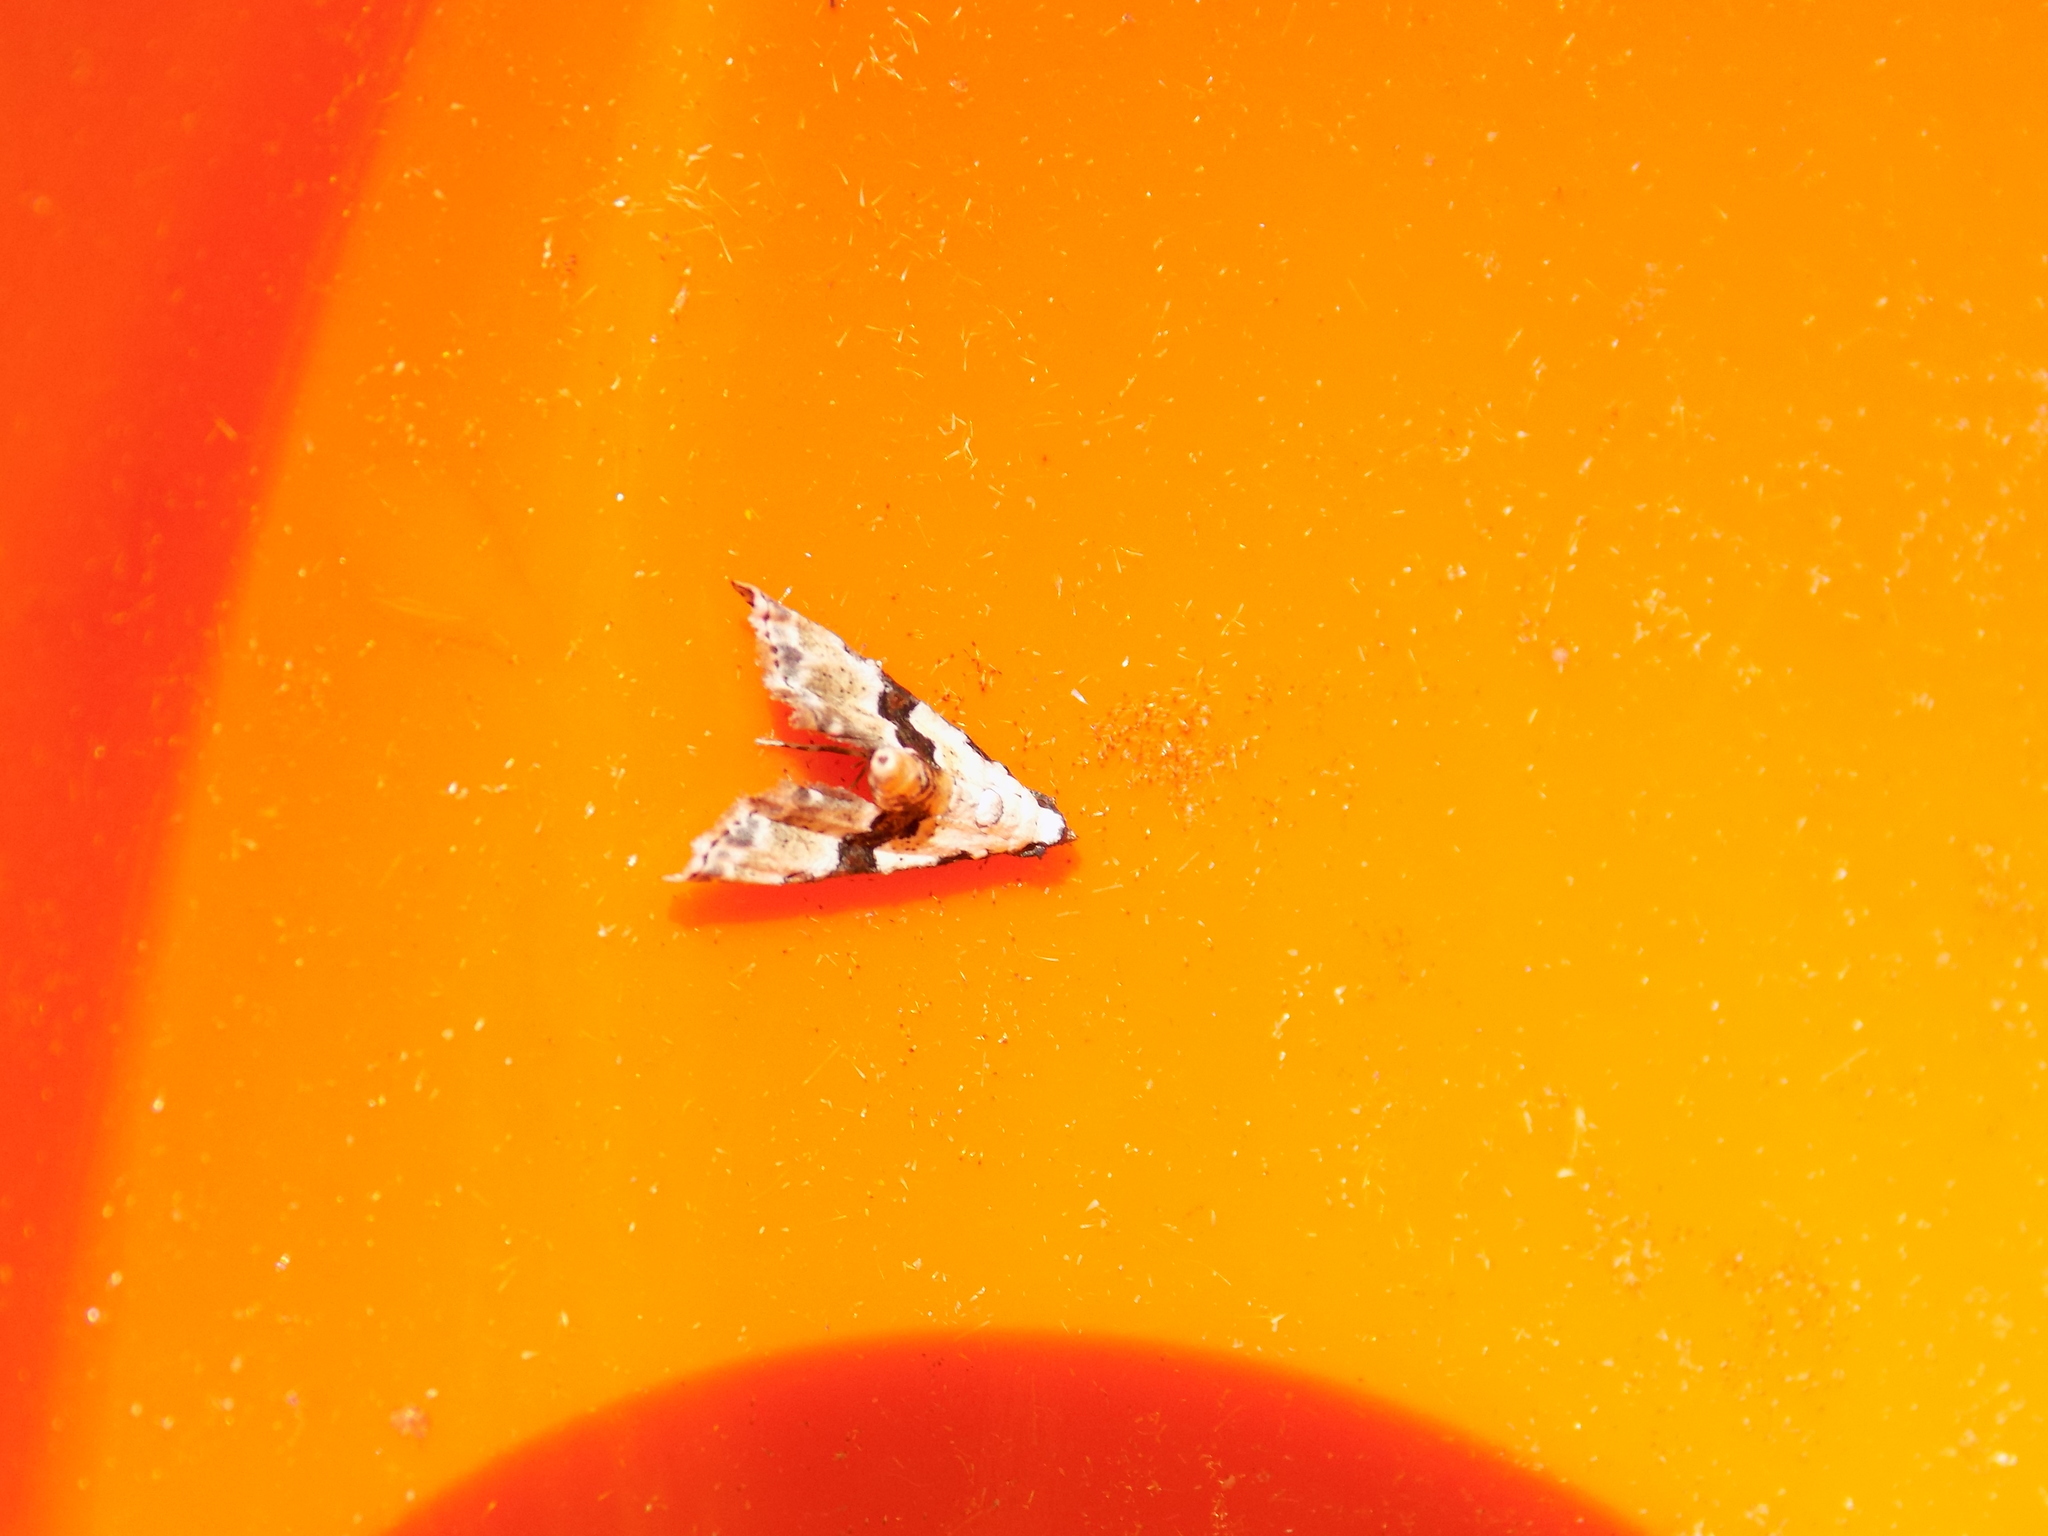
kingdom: Animalia
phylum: Arthropoda
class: Insecta
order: Lepidoptera
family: Noctuidae
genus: Nigetia
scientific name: Nigetia formosalis
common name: Thin-winged owlet
